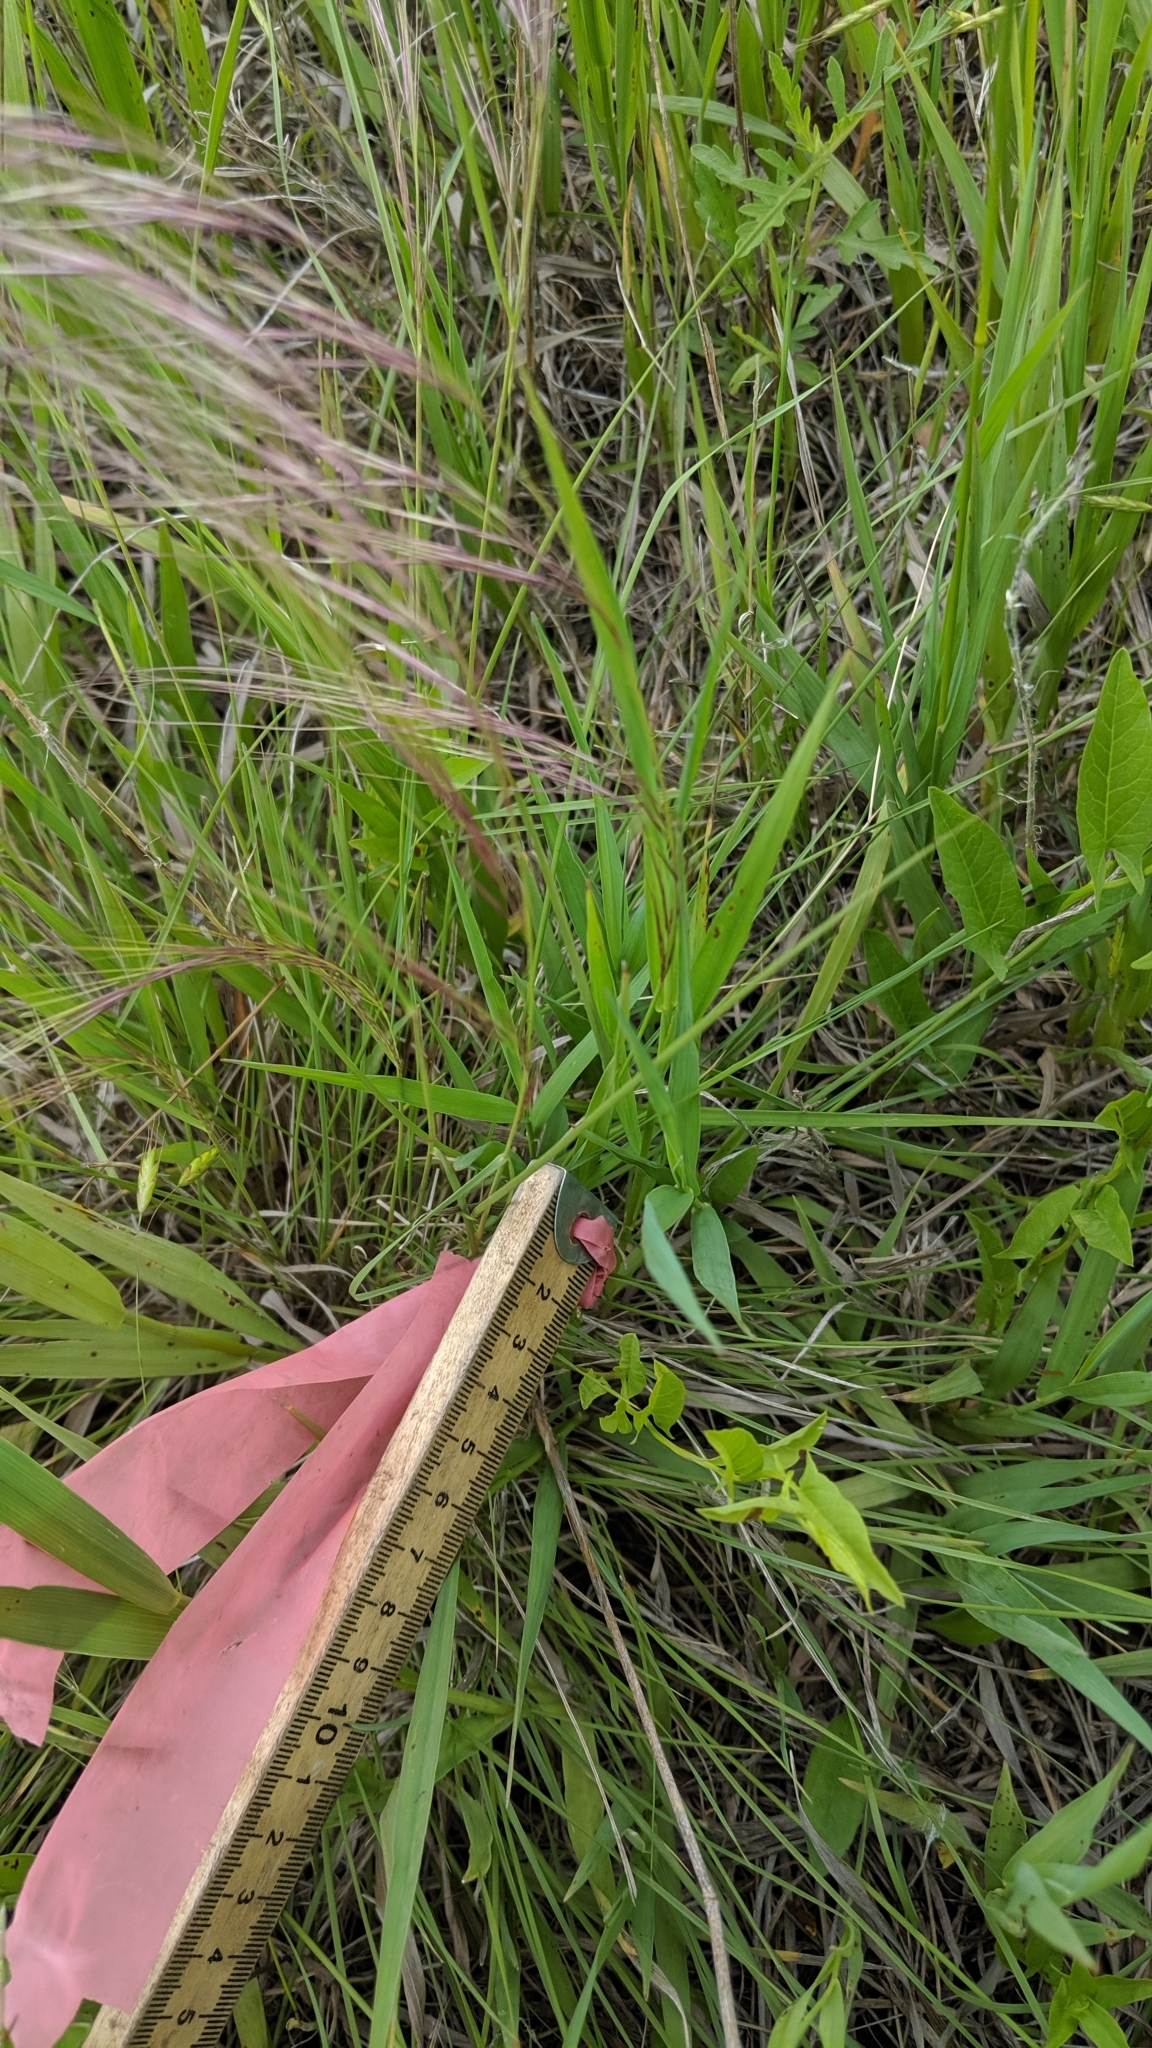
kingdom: Plantae
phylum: Tracheophyta
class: Liliopsida
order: Poales
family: Poaceae
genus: Aristida
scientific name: Aristida purpurea
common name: Purple threeawn
